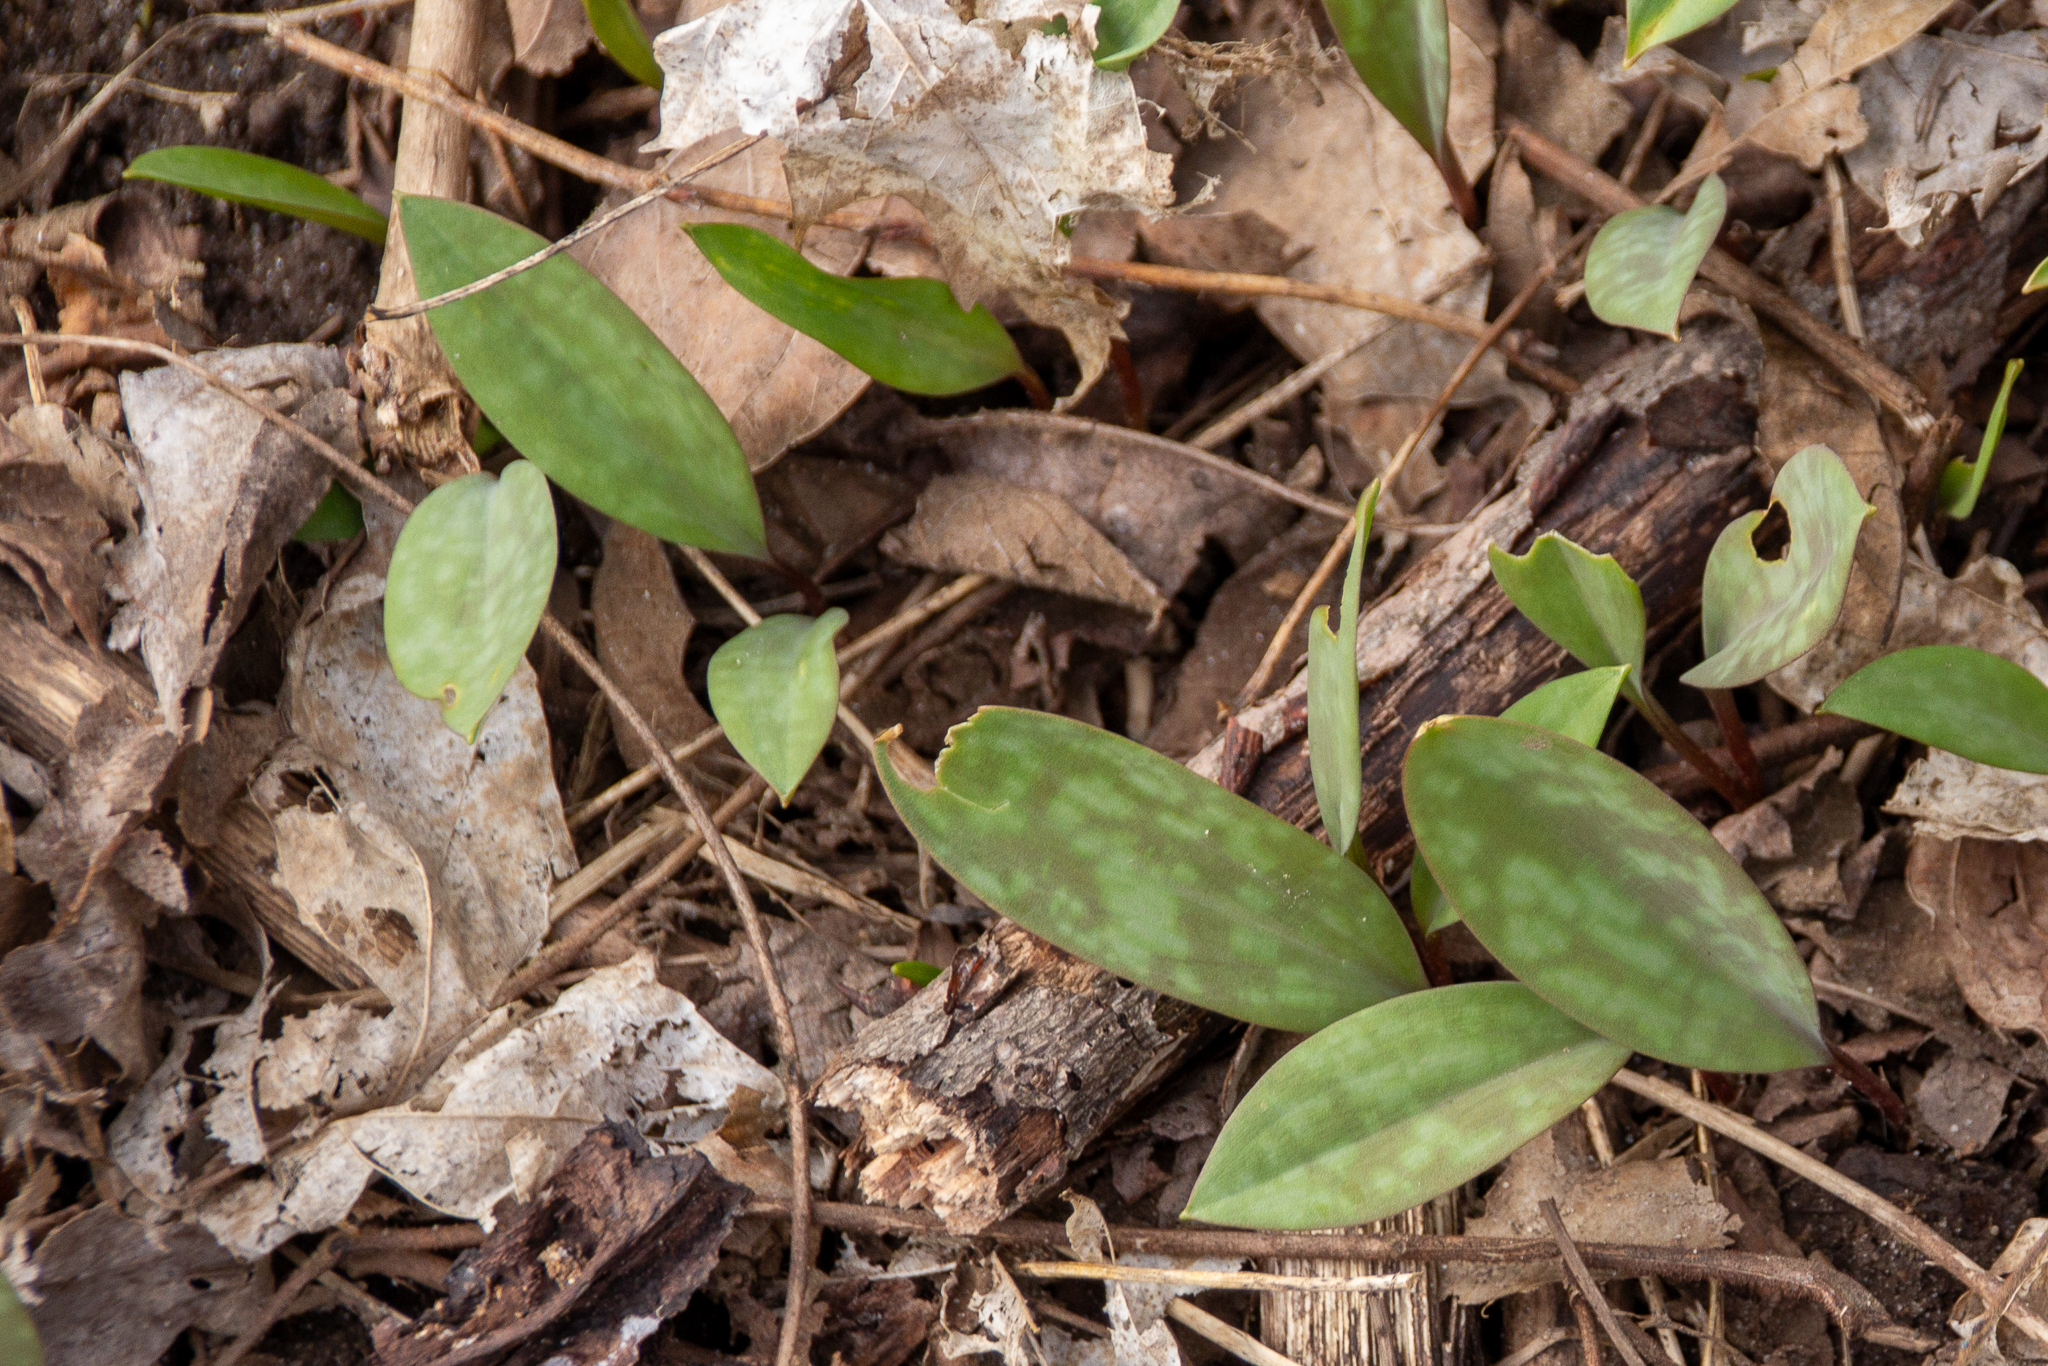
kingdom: Plantae
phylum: Tracheophyta
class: Liliopsida
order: Liliales
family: Liliaceae
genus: Erythronium
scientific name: Erythronium americanum
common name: Yellow adder's-tongue
